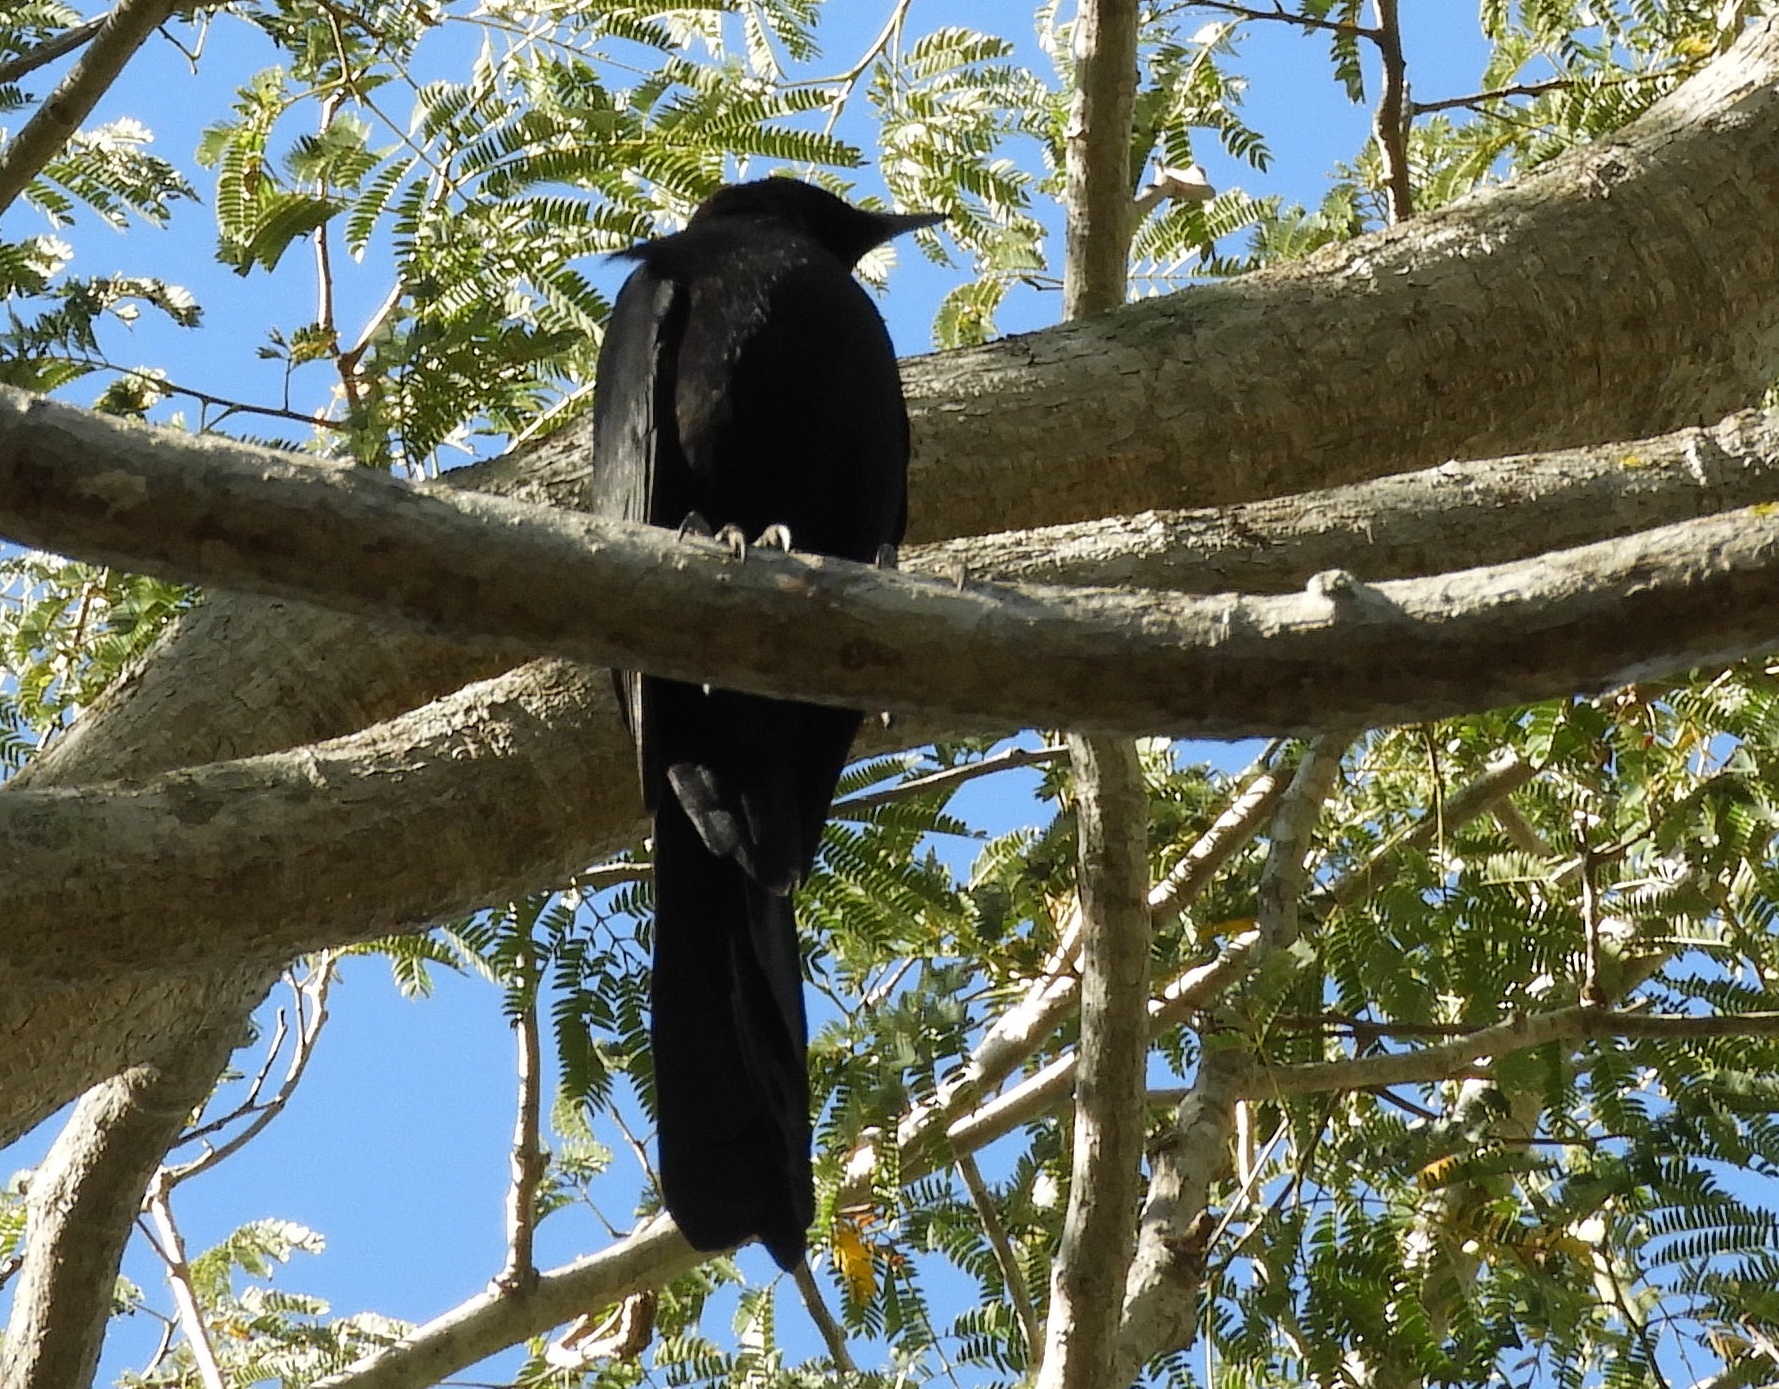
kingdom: Animalia
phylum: Chordata
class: Aves
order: Passeriformes
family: Icteridae
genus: Quiscalus
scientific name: Quiscalus mexicanus
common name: Great-tailed grackle
